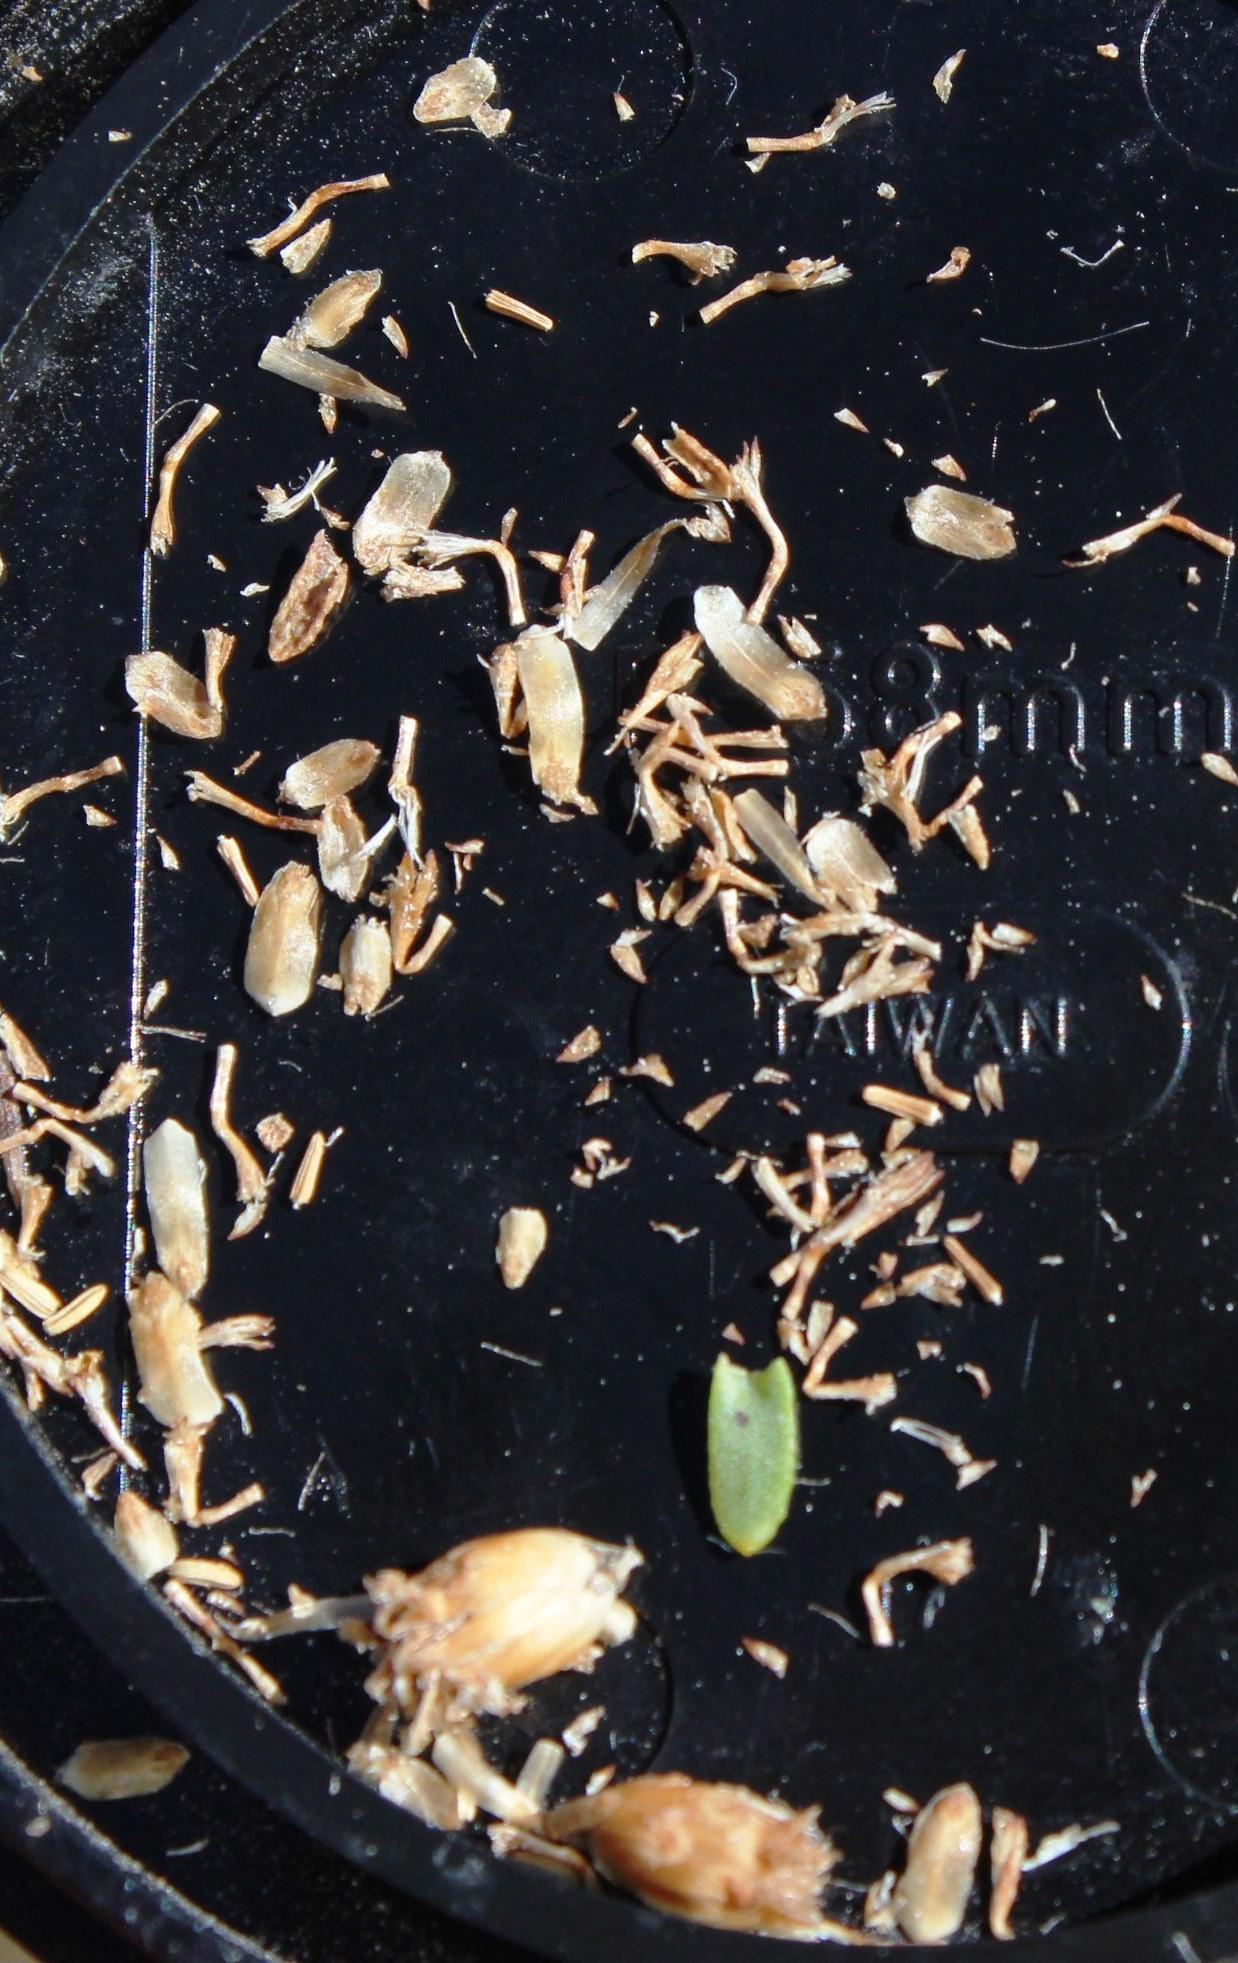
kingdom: Plantae
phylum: Tracheophyta
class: Magnoliopsida
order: Asterales
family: Asteraceae
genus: Athanasia
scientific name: Athanasia microphylla
